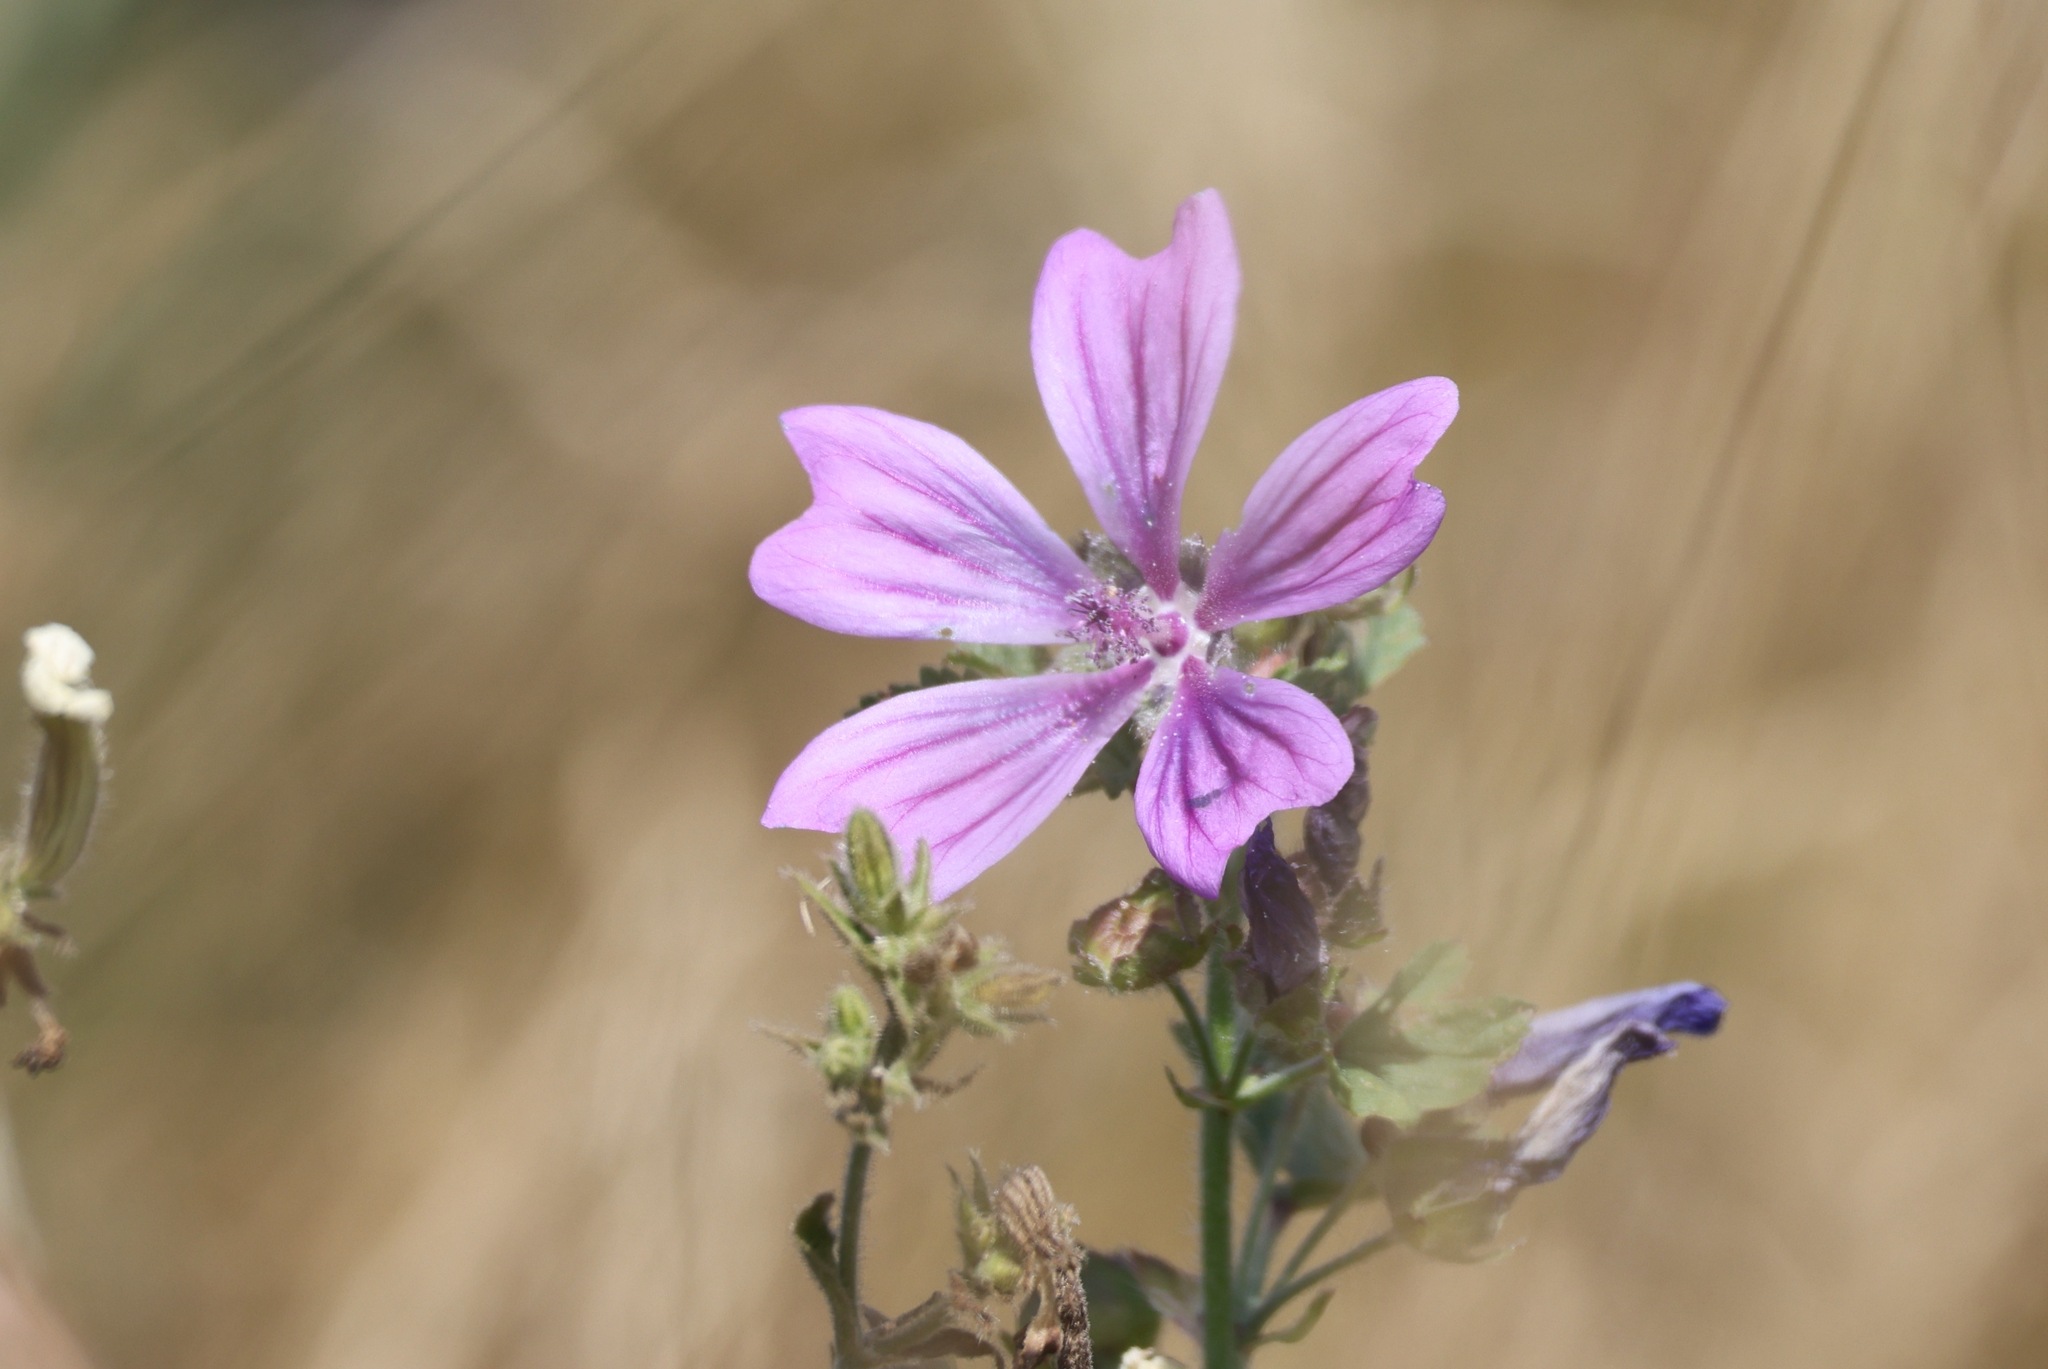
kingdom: Plantae
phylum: Tracheophyta
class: Magnoliopsida
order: Malvales
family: Malvaceae
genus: Malva
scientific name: Malva sylvestris
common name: Common mallow
